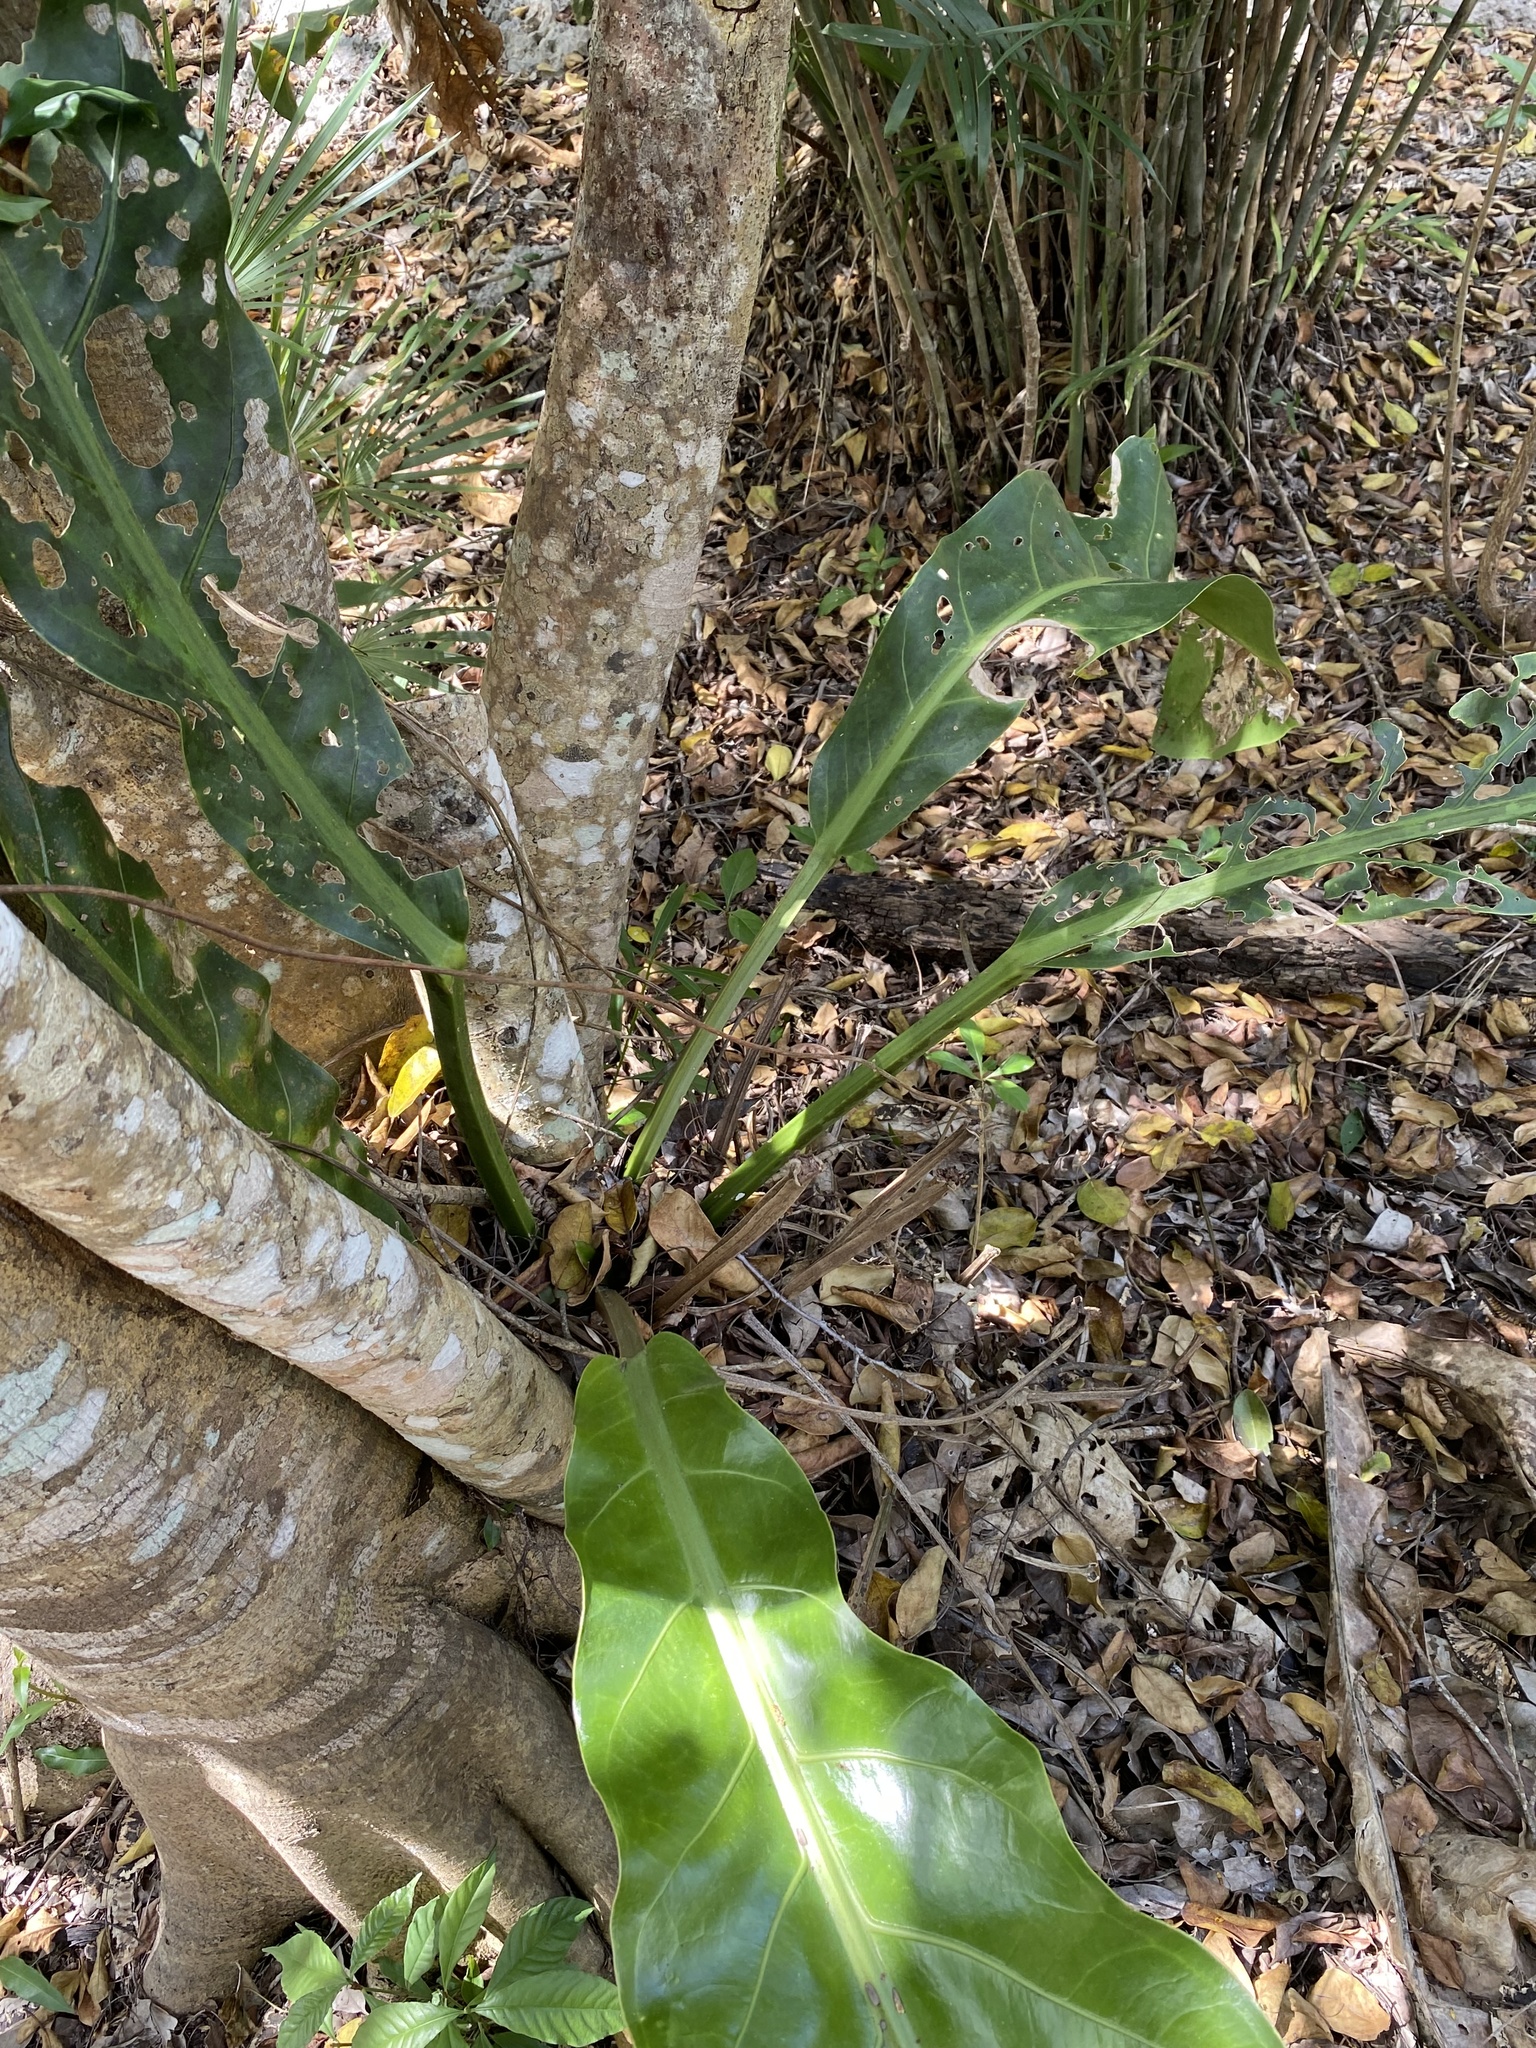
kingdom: Plantae
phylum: Tracheophyta
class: Liliopsida
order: Alismatales
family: Araceae
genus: Anthurium
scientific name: Anthurium schlechtendalii
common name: Laceleaf
